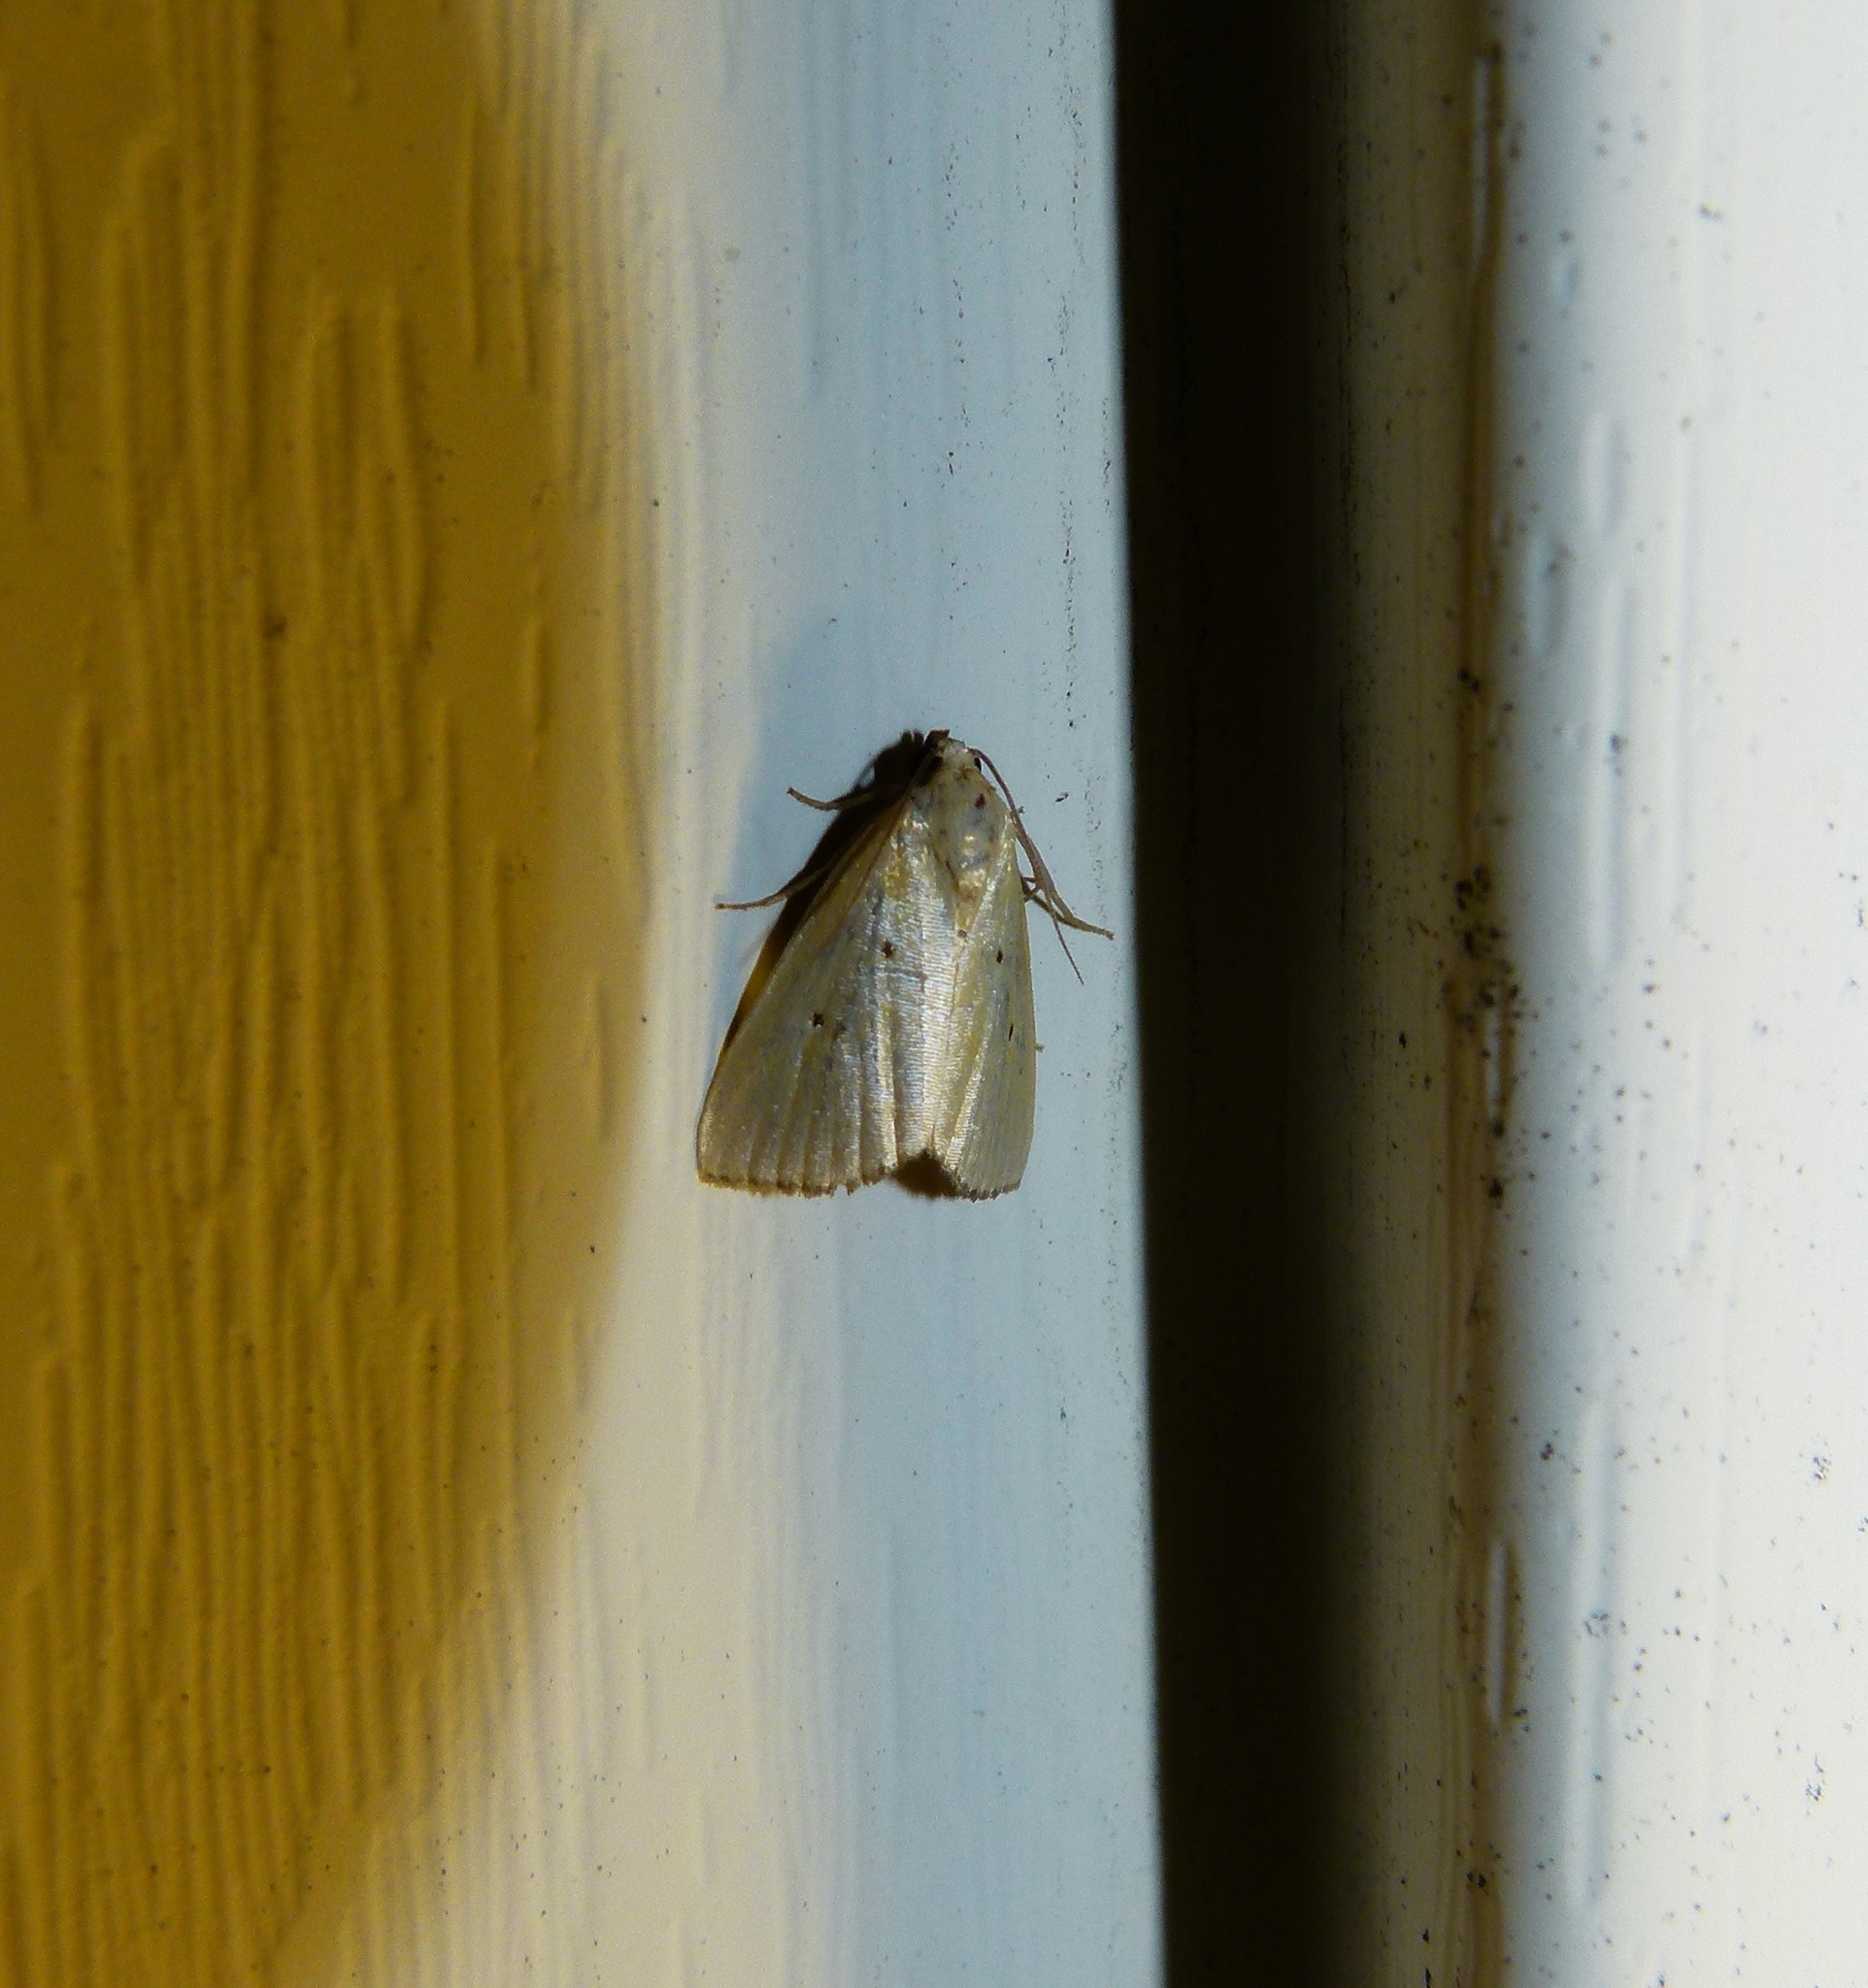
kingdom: Animalia
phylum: Arthropoda
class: Insecta
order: Lepidoptera
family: Noctuidae
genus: Marimatha
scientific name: Marimatha nigrofimbria
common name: Black-bordered lemon moth
